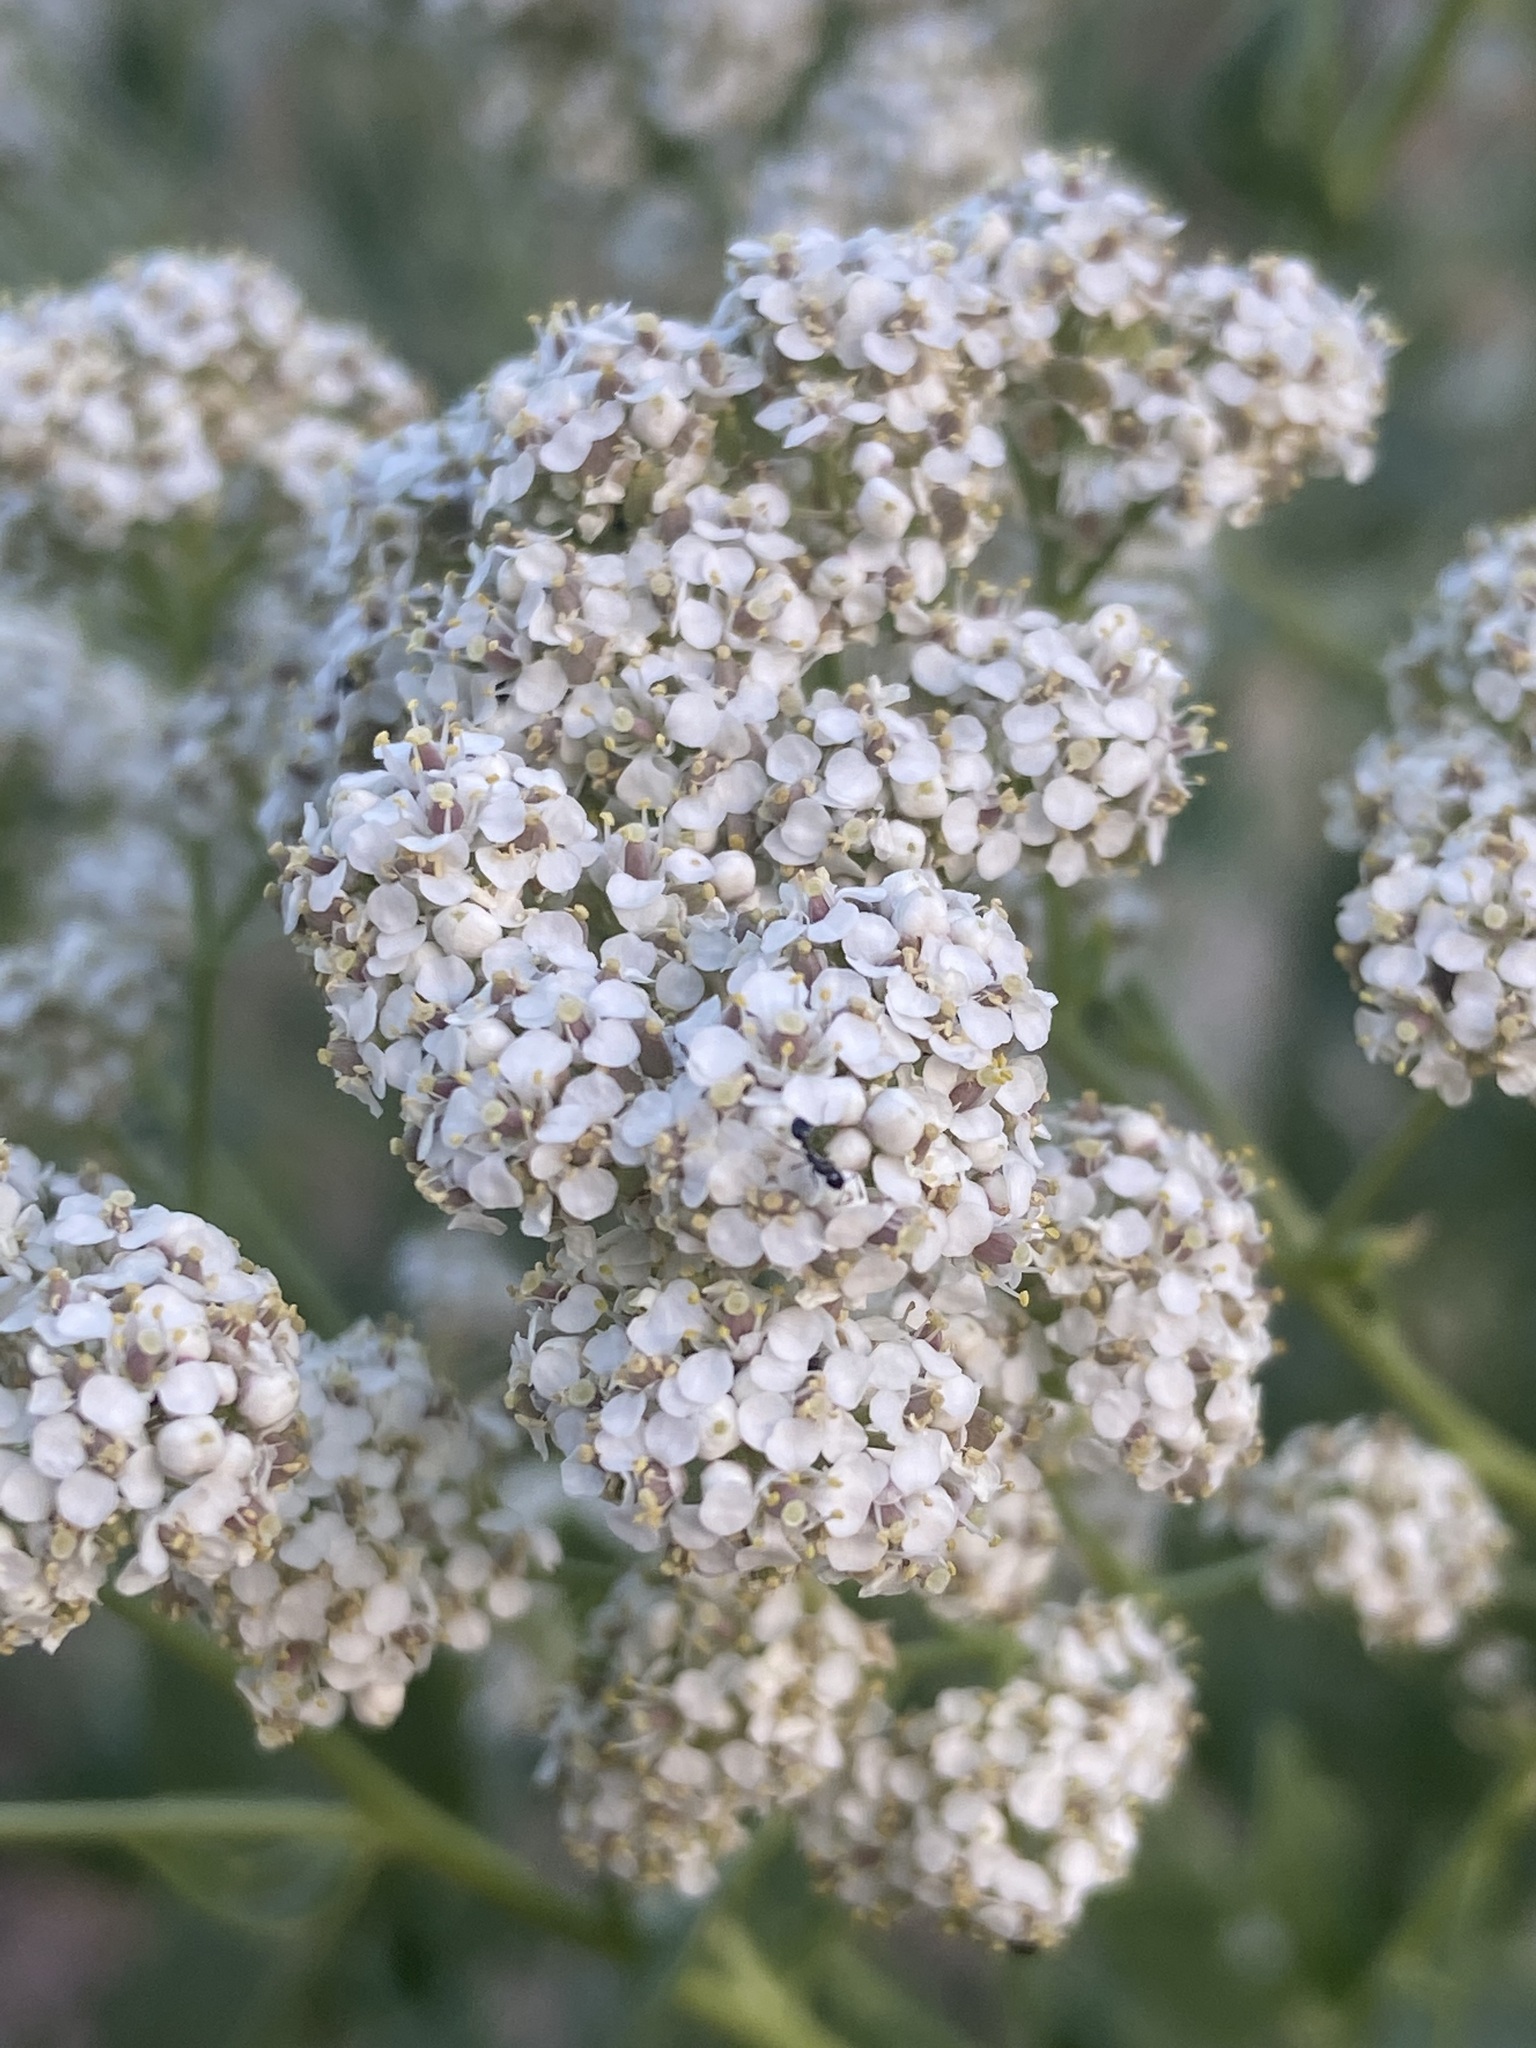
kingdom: Plantae
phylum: Tracheophyta
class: Magnoliopsida
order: Brassicales
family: Brassicaceae
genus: Lepidium
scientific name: Lepidium latifolium
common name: Dittander
